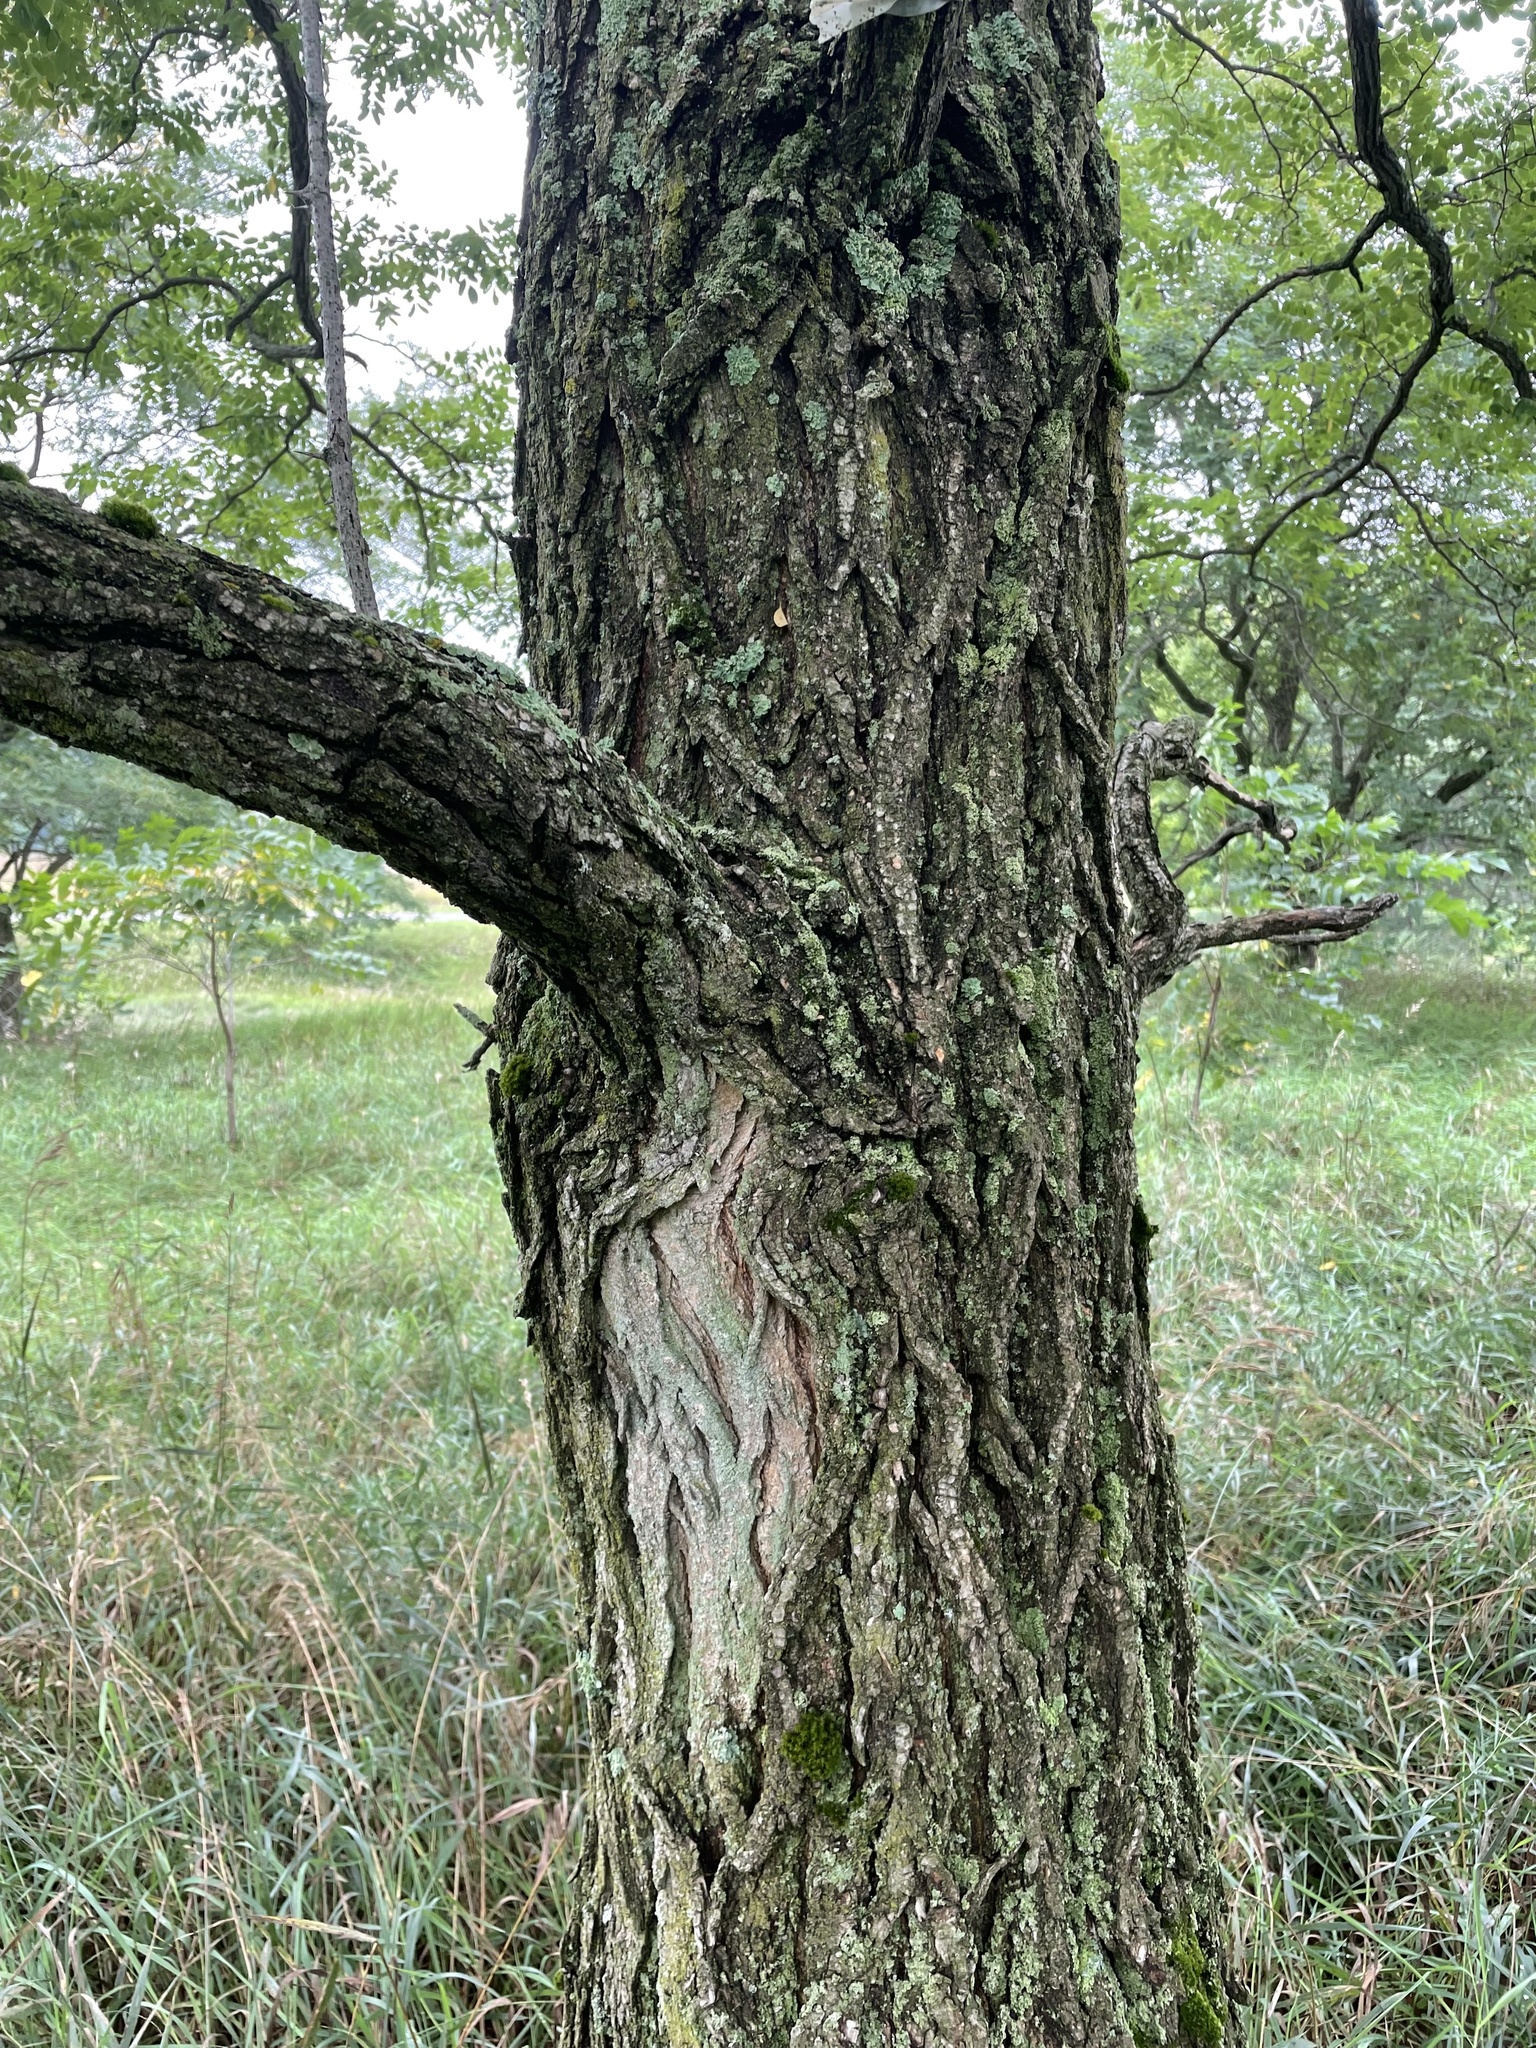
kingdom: Plantae
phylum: Tracheophyta
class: Magnoliopsida
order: Fabales
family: Fabaceae
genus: Robinia
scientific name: Robinia pseudoacacia
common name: Black locust
